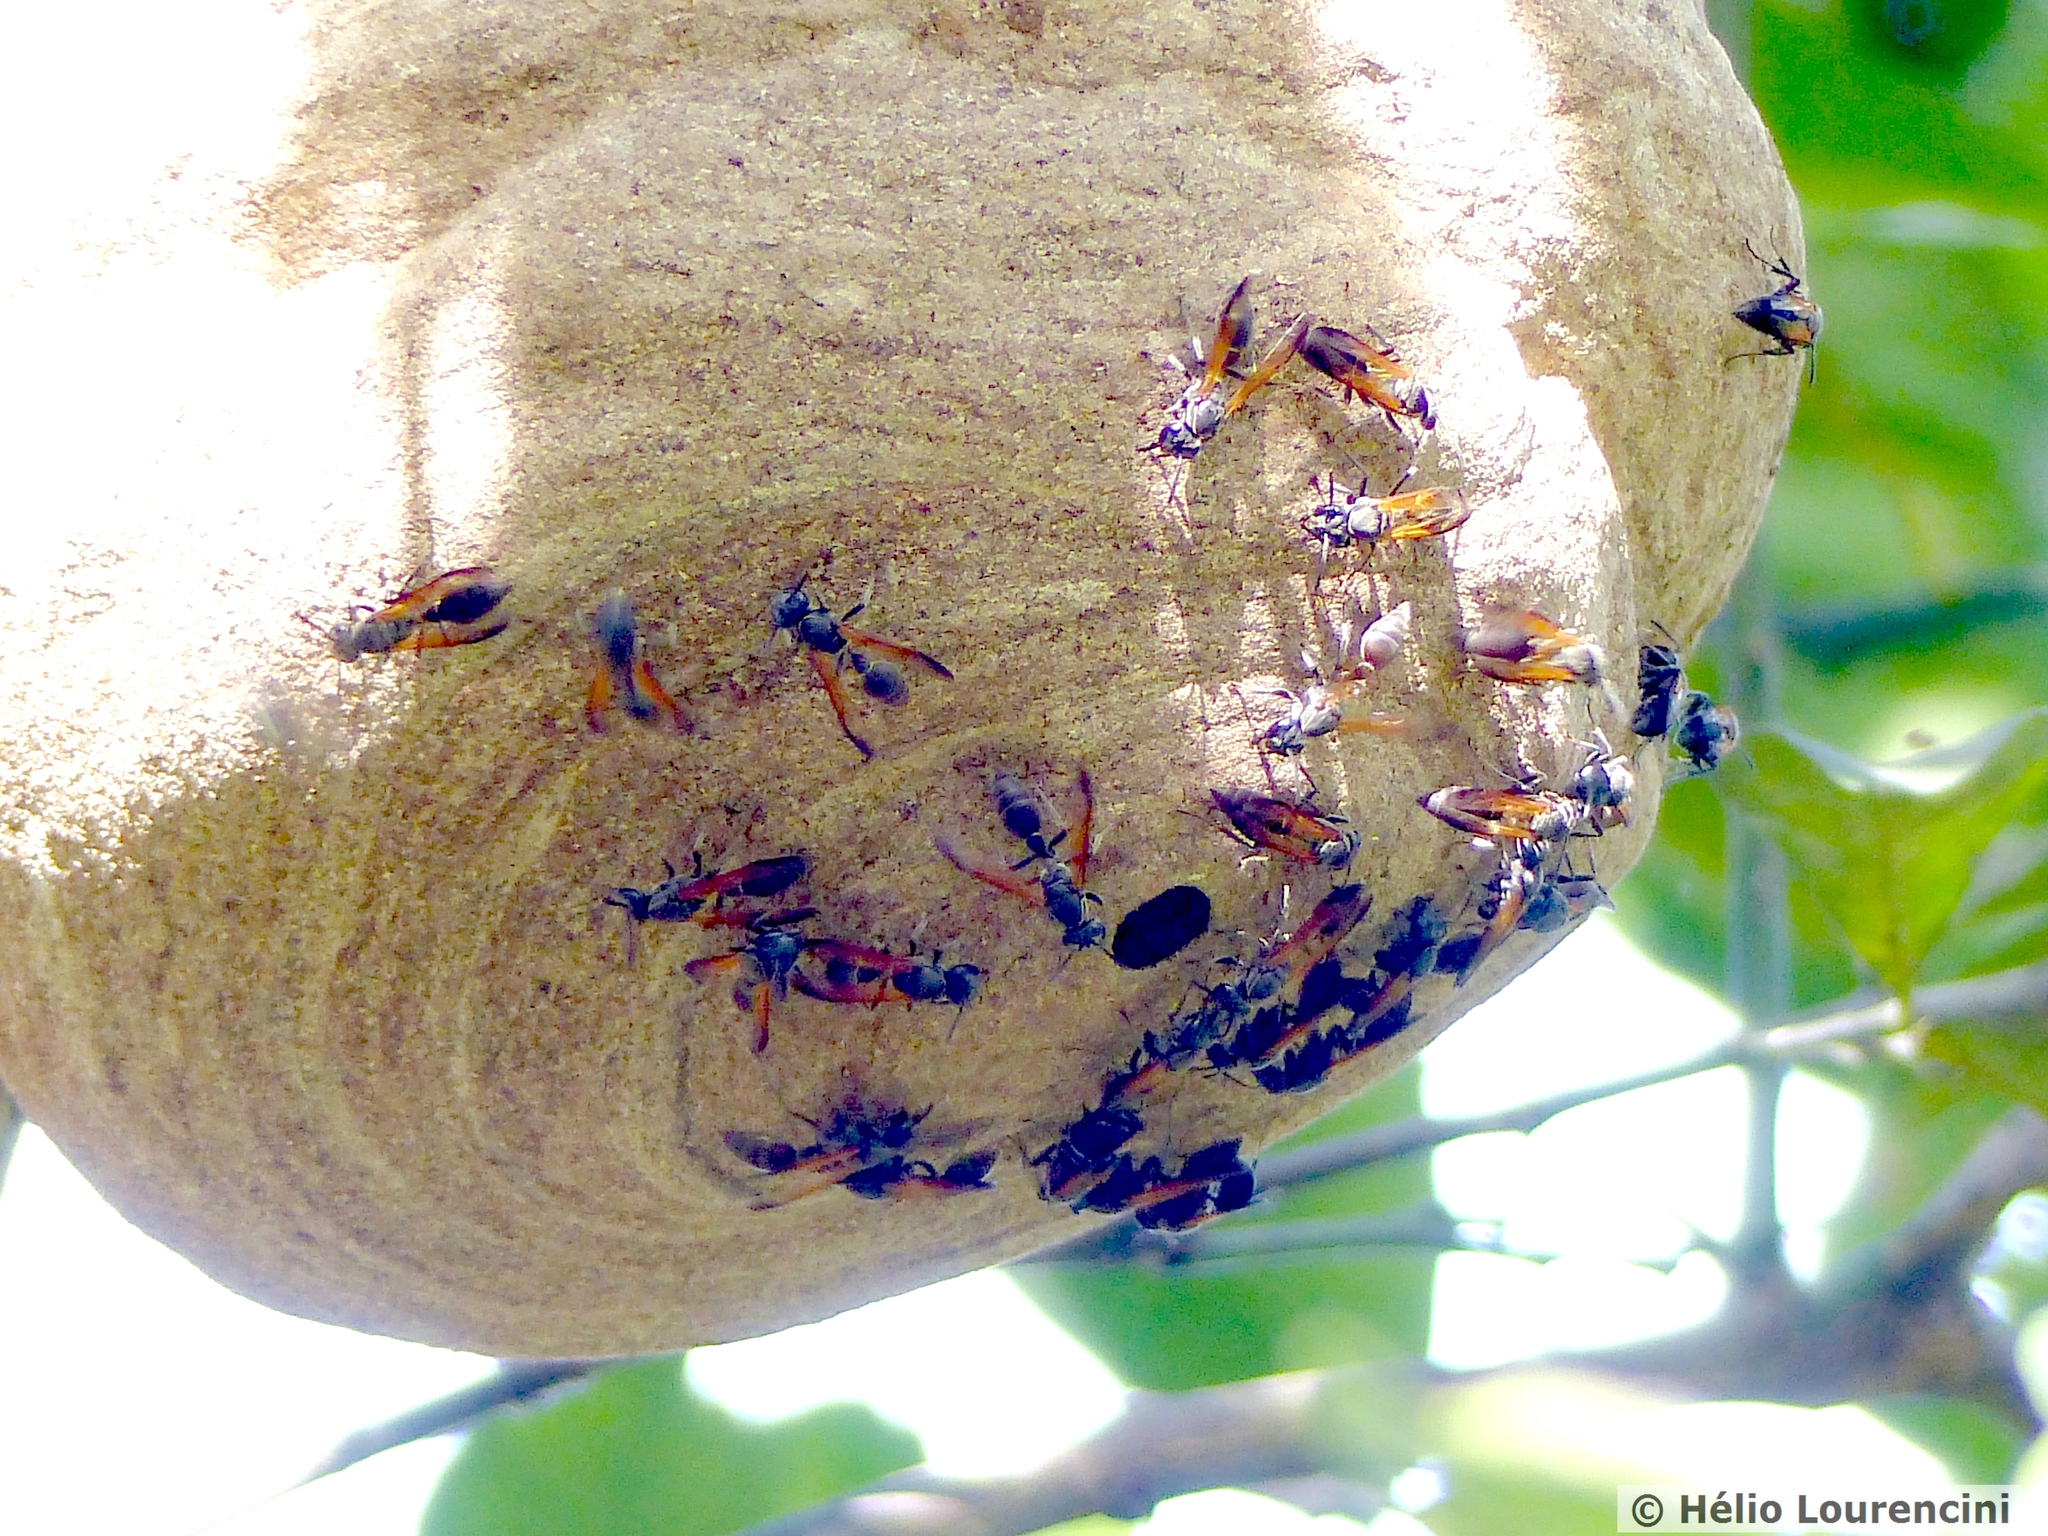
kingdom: Animalia
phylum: Arthropoda
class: Insecta
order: Hymenoptera
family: Eumenidae
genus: Polybia
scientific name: Polybia rejecta
